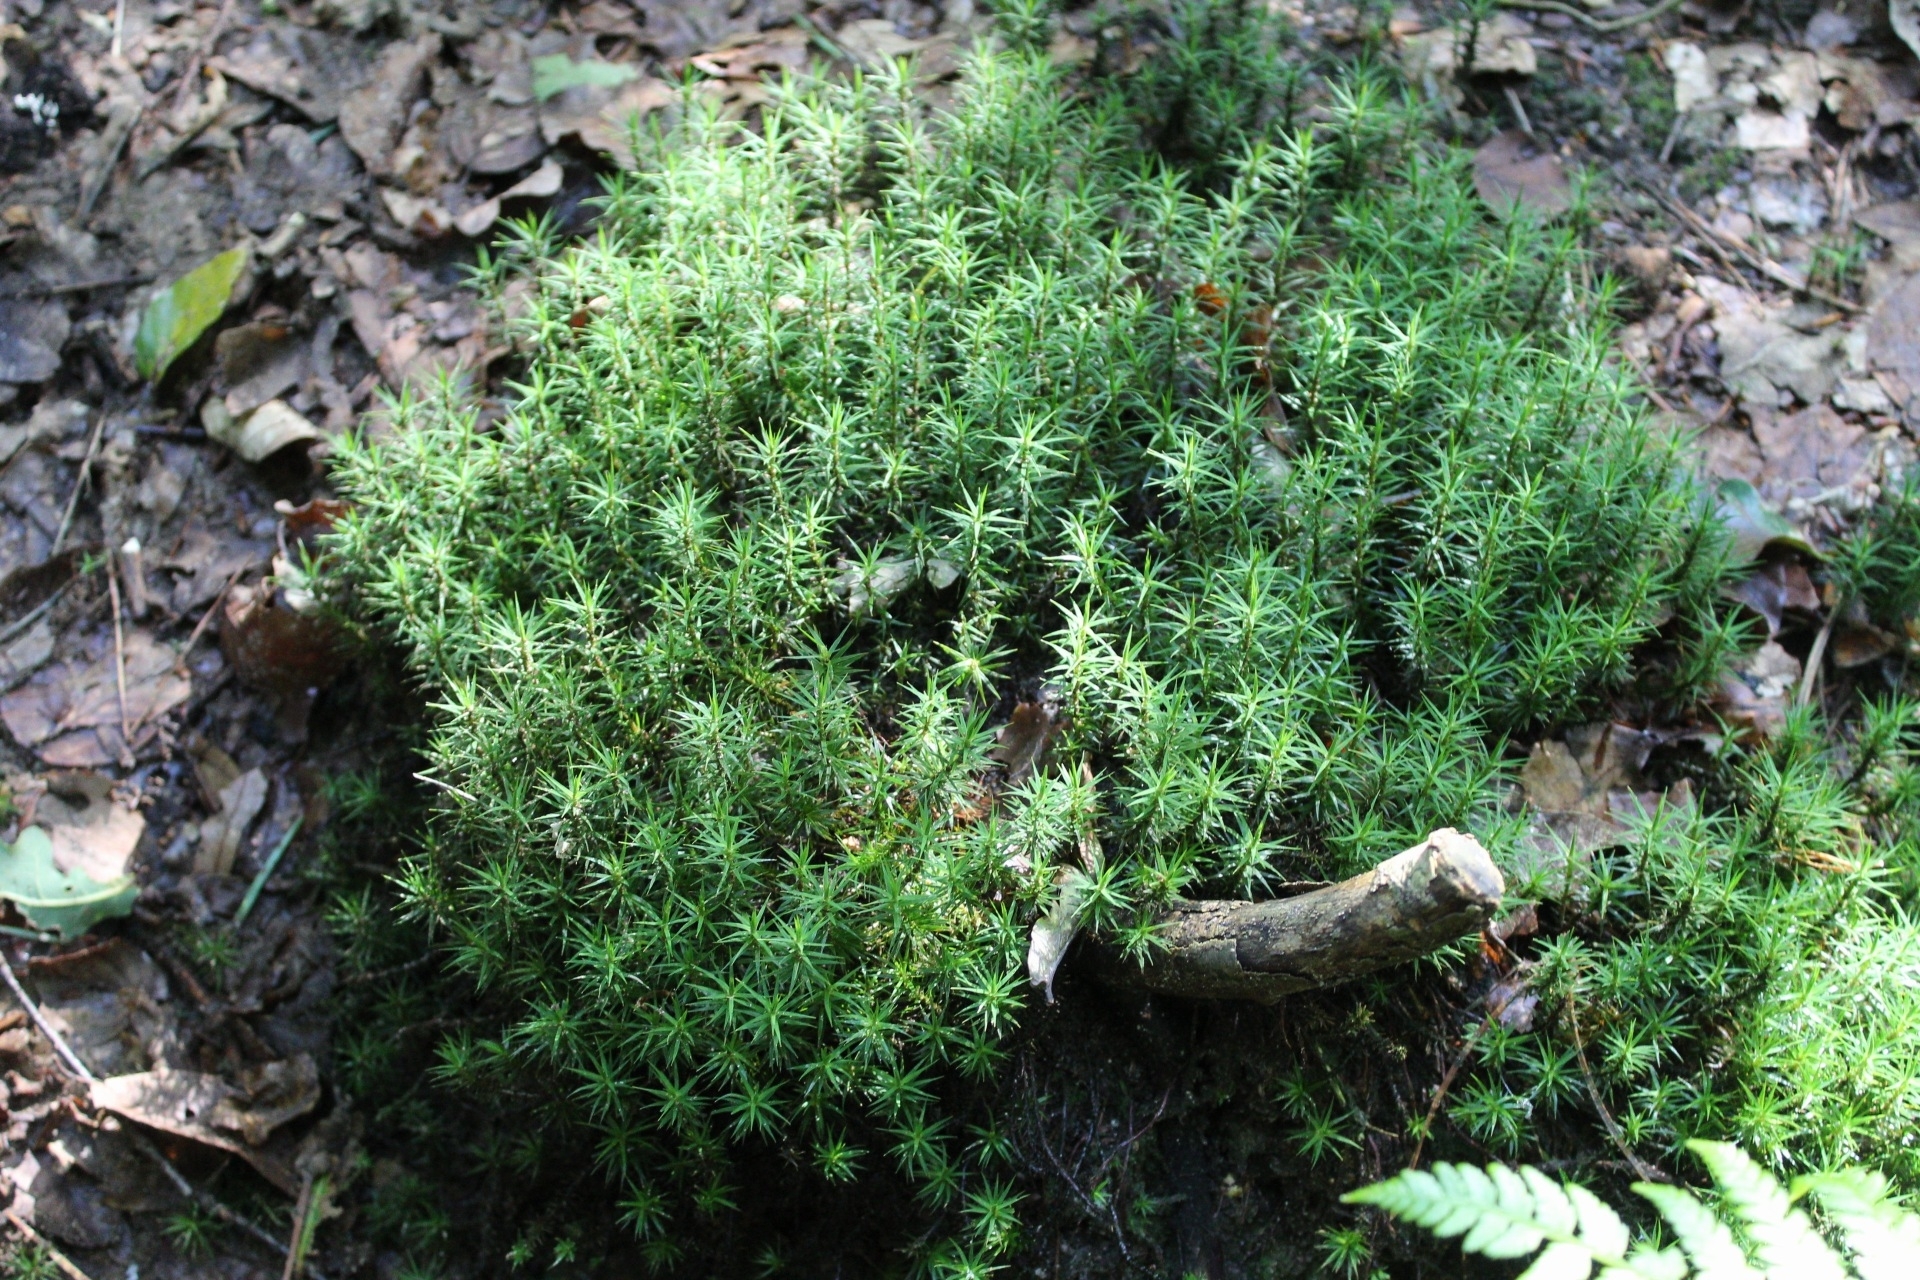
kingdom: Plantae
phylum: Bryophyta
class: Polytrichopsida
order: Polytrichales
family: Polytrichaceae
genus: Polytrichum
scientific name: Polytrichum formosum
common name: Bank haircap moss
